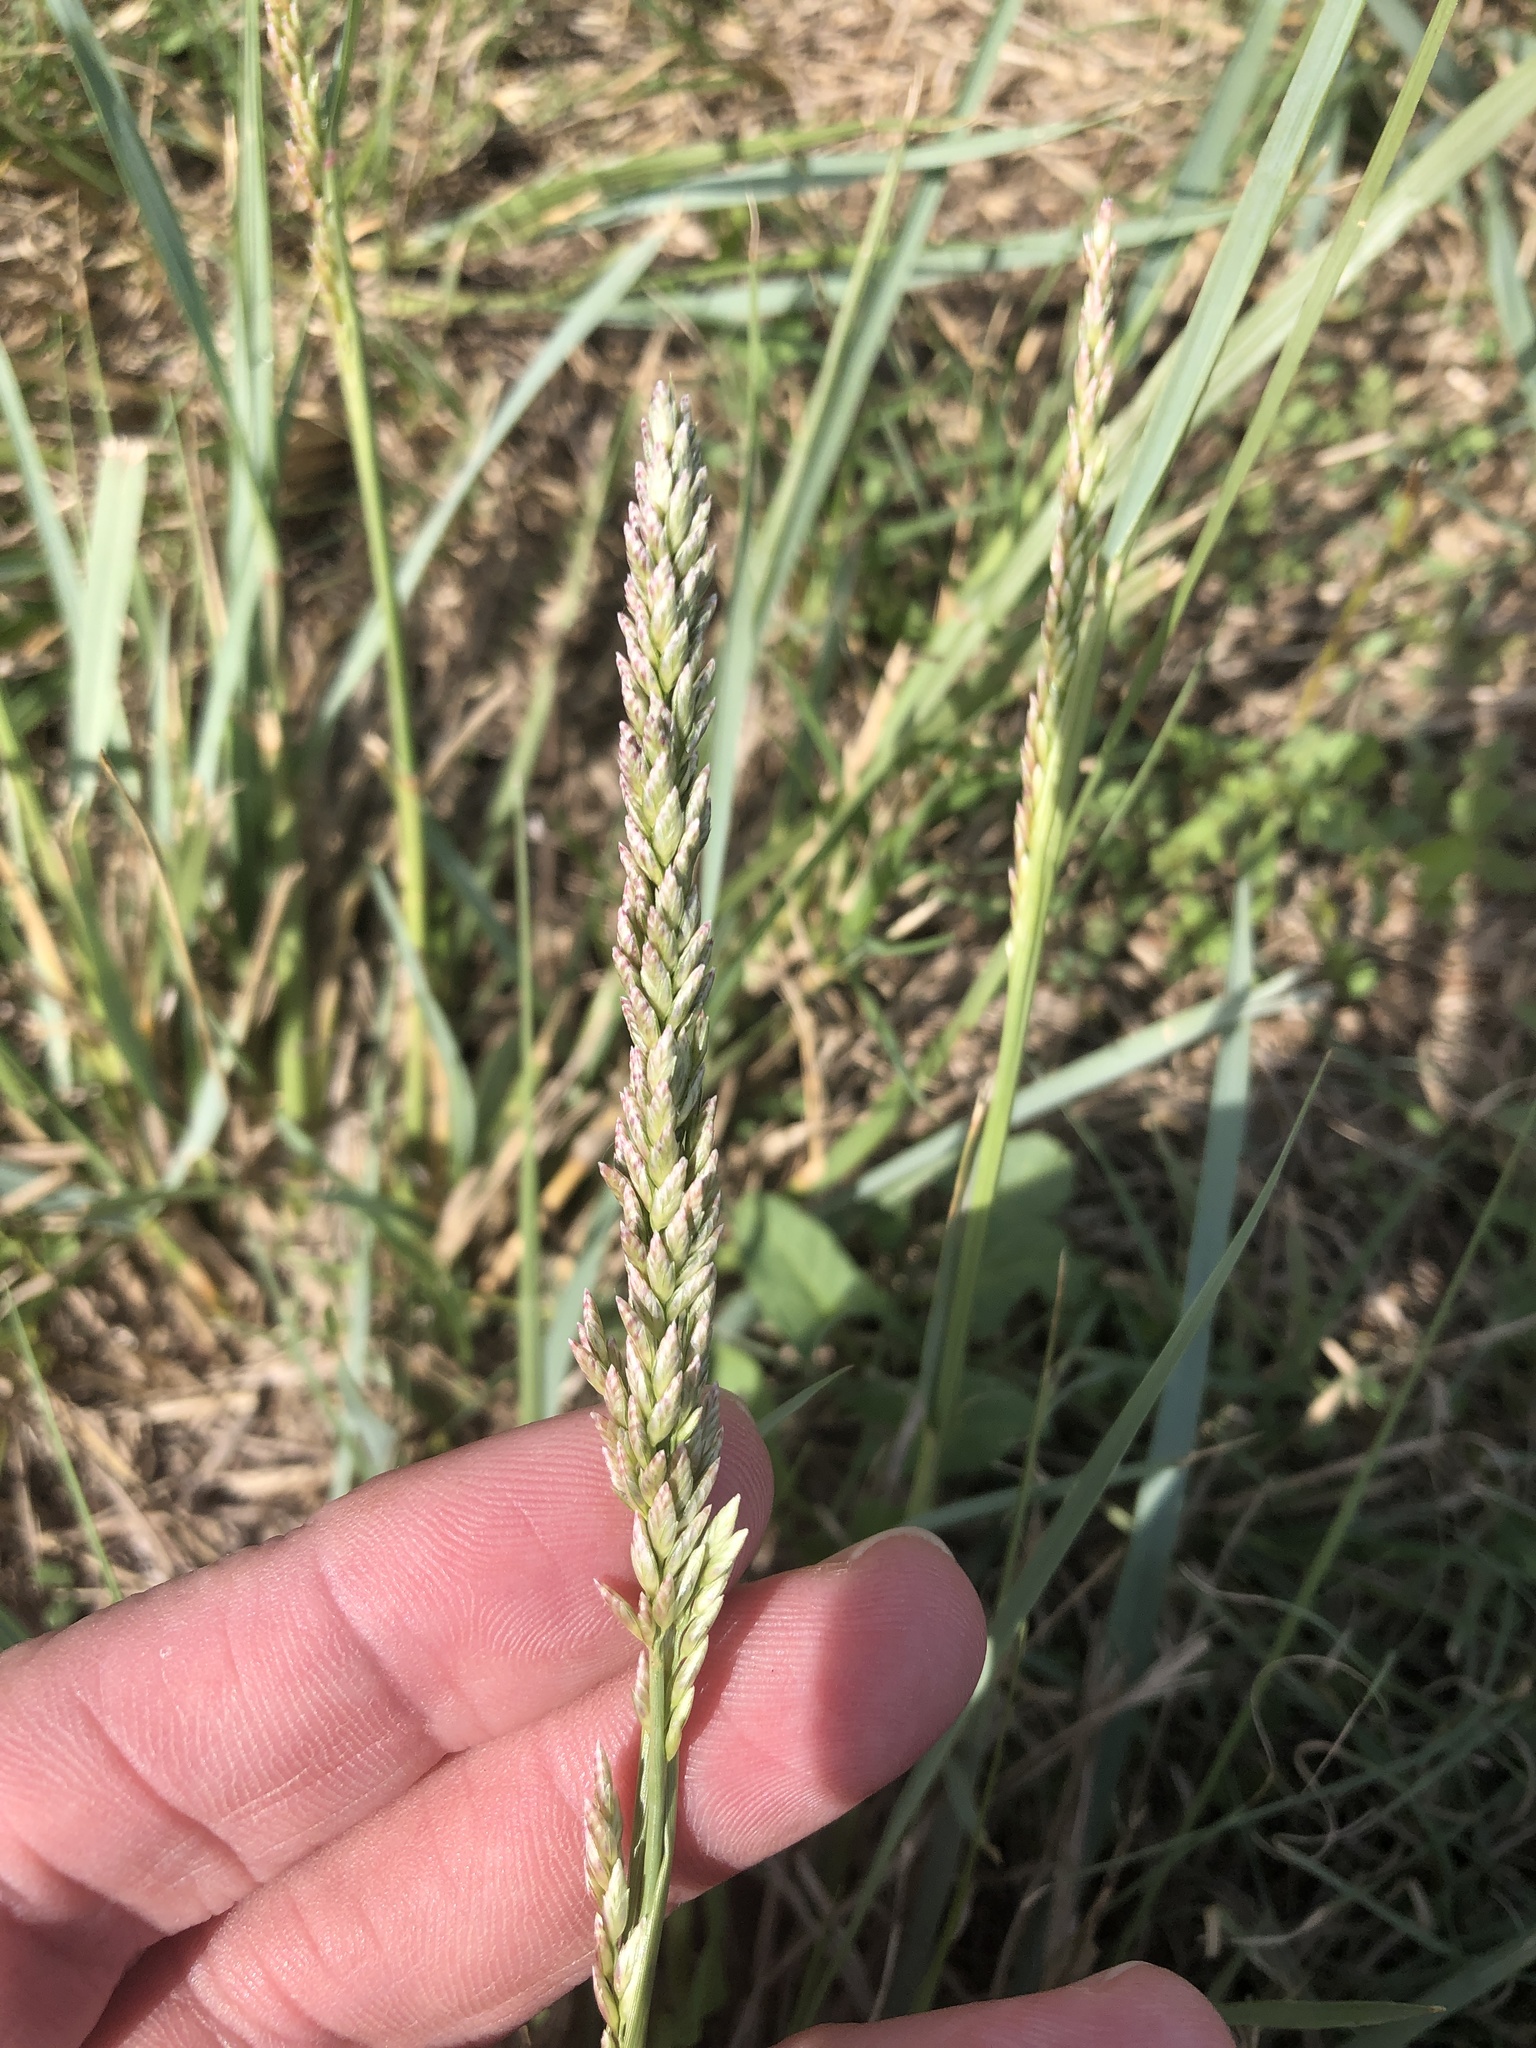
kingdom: Plantae
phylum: Tracheophyta
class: Liliopsida
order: Poales
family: Poaceae
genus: Tridens
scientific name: Tridens albescens
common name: White tridens
